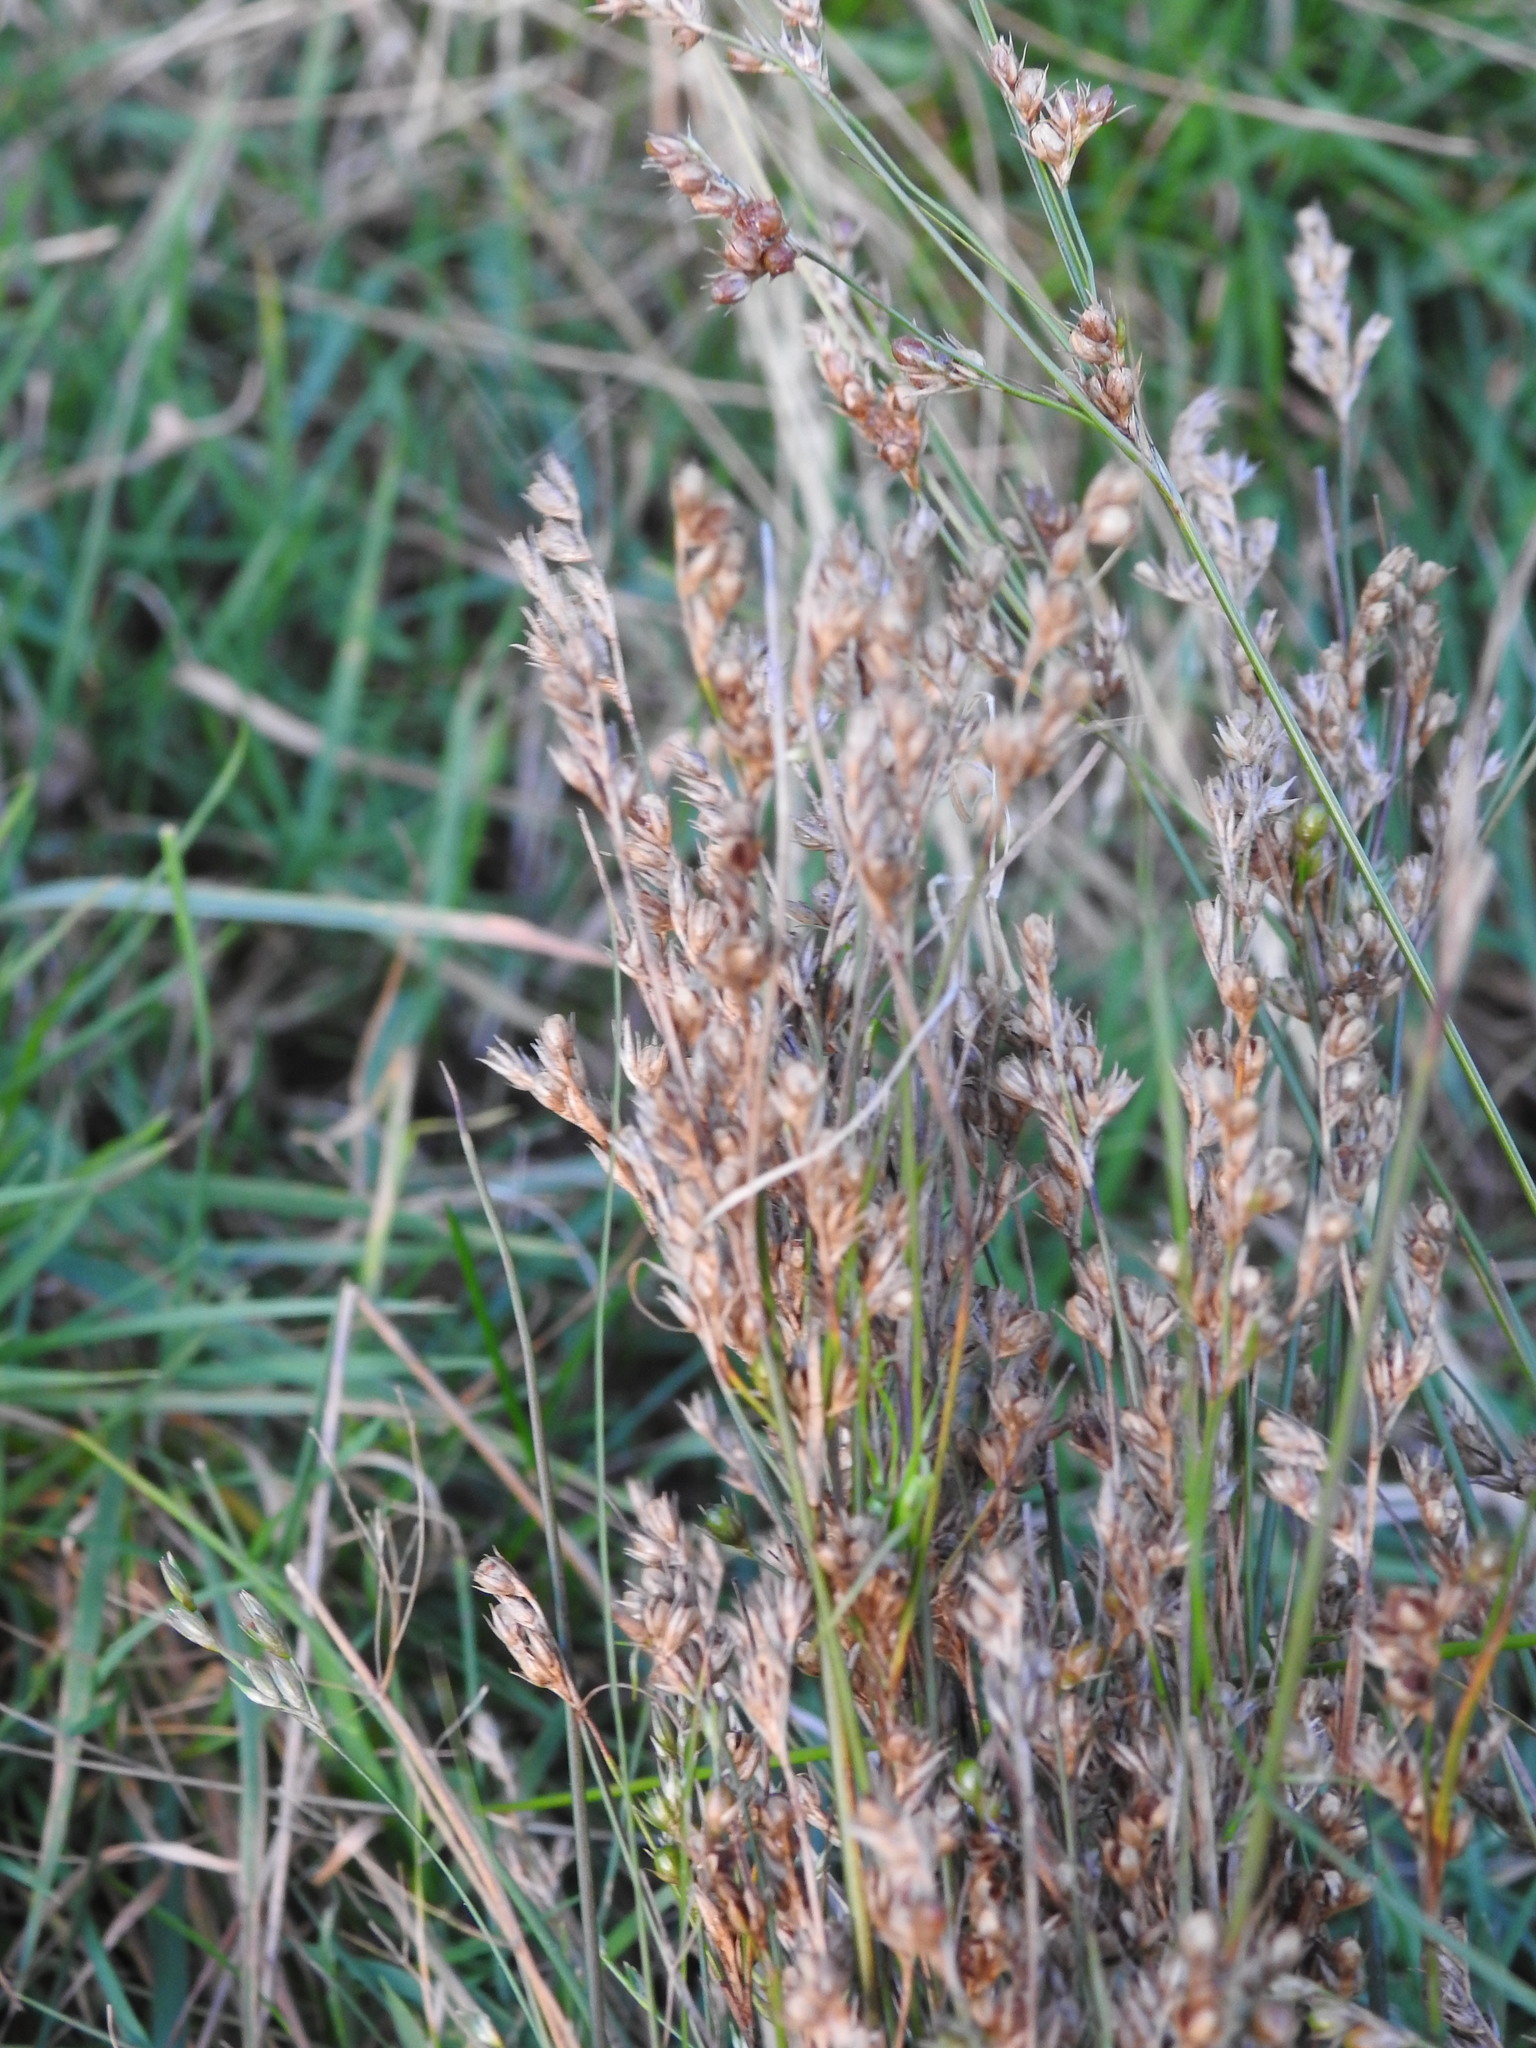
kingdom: Plantae
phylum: Tracheophyta
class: Liliopsida
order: Poales
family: Juncaceae
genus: Juncus
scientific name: Juncus tenuis
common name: Slender rush
